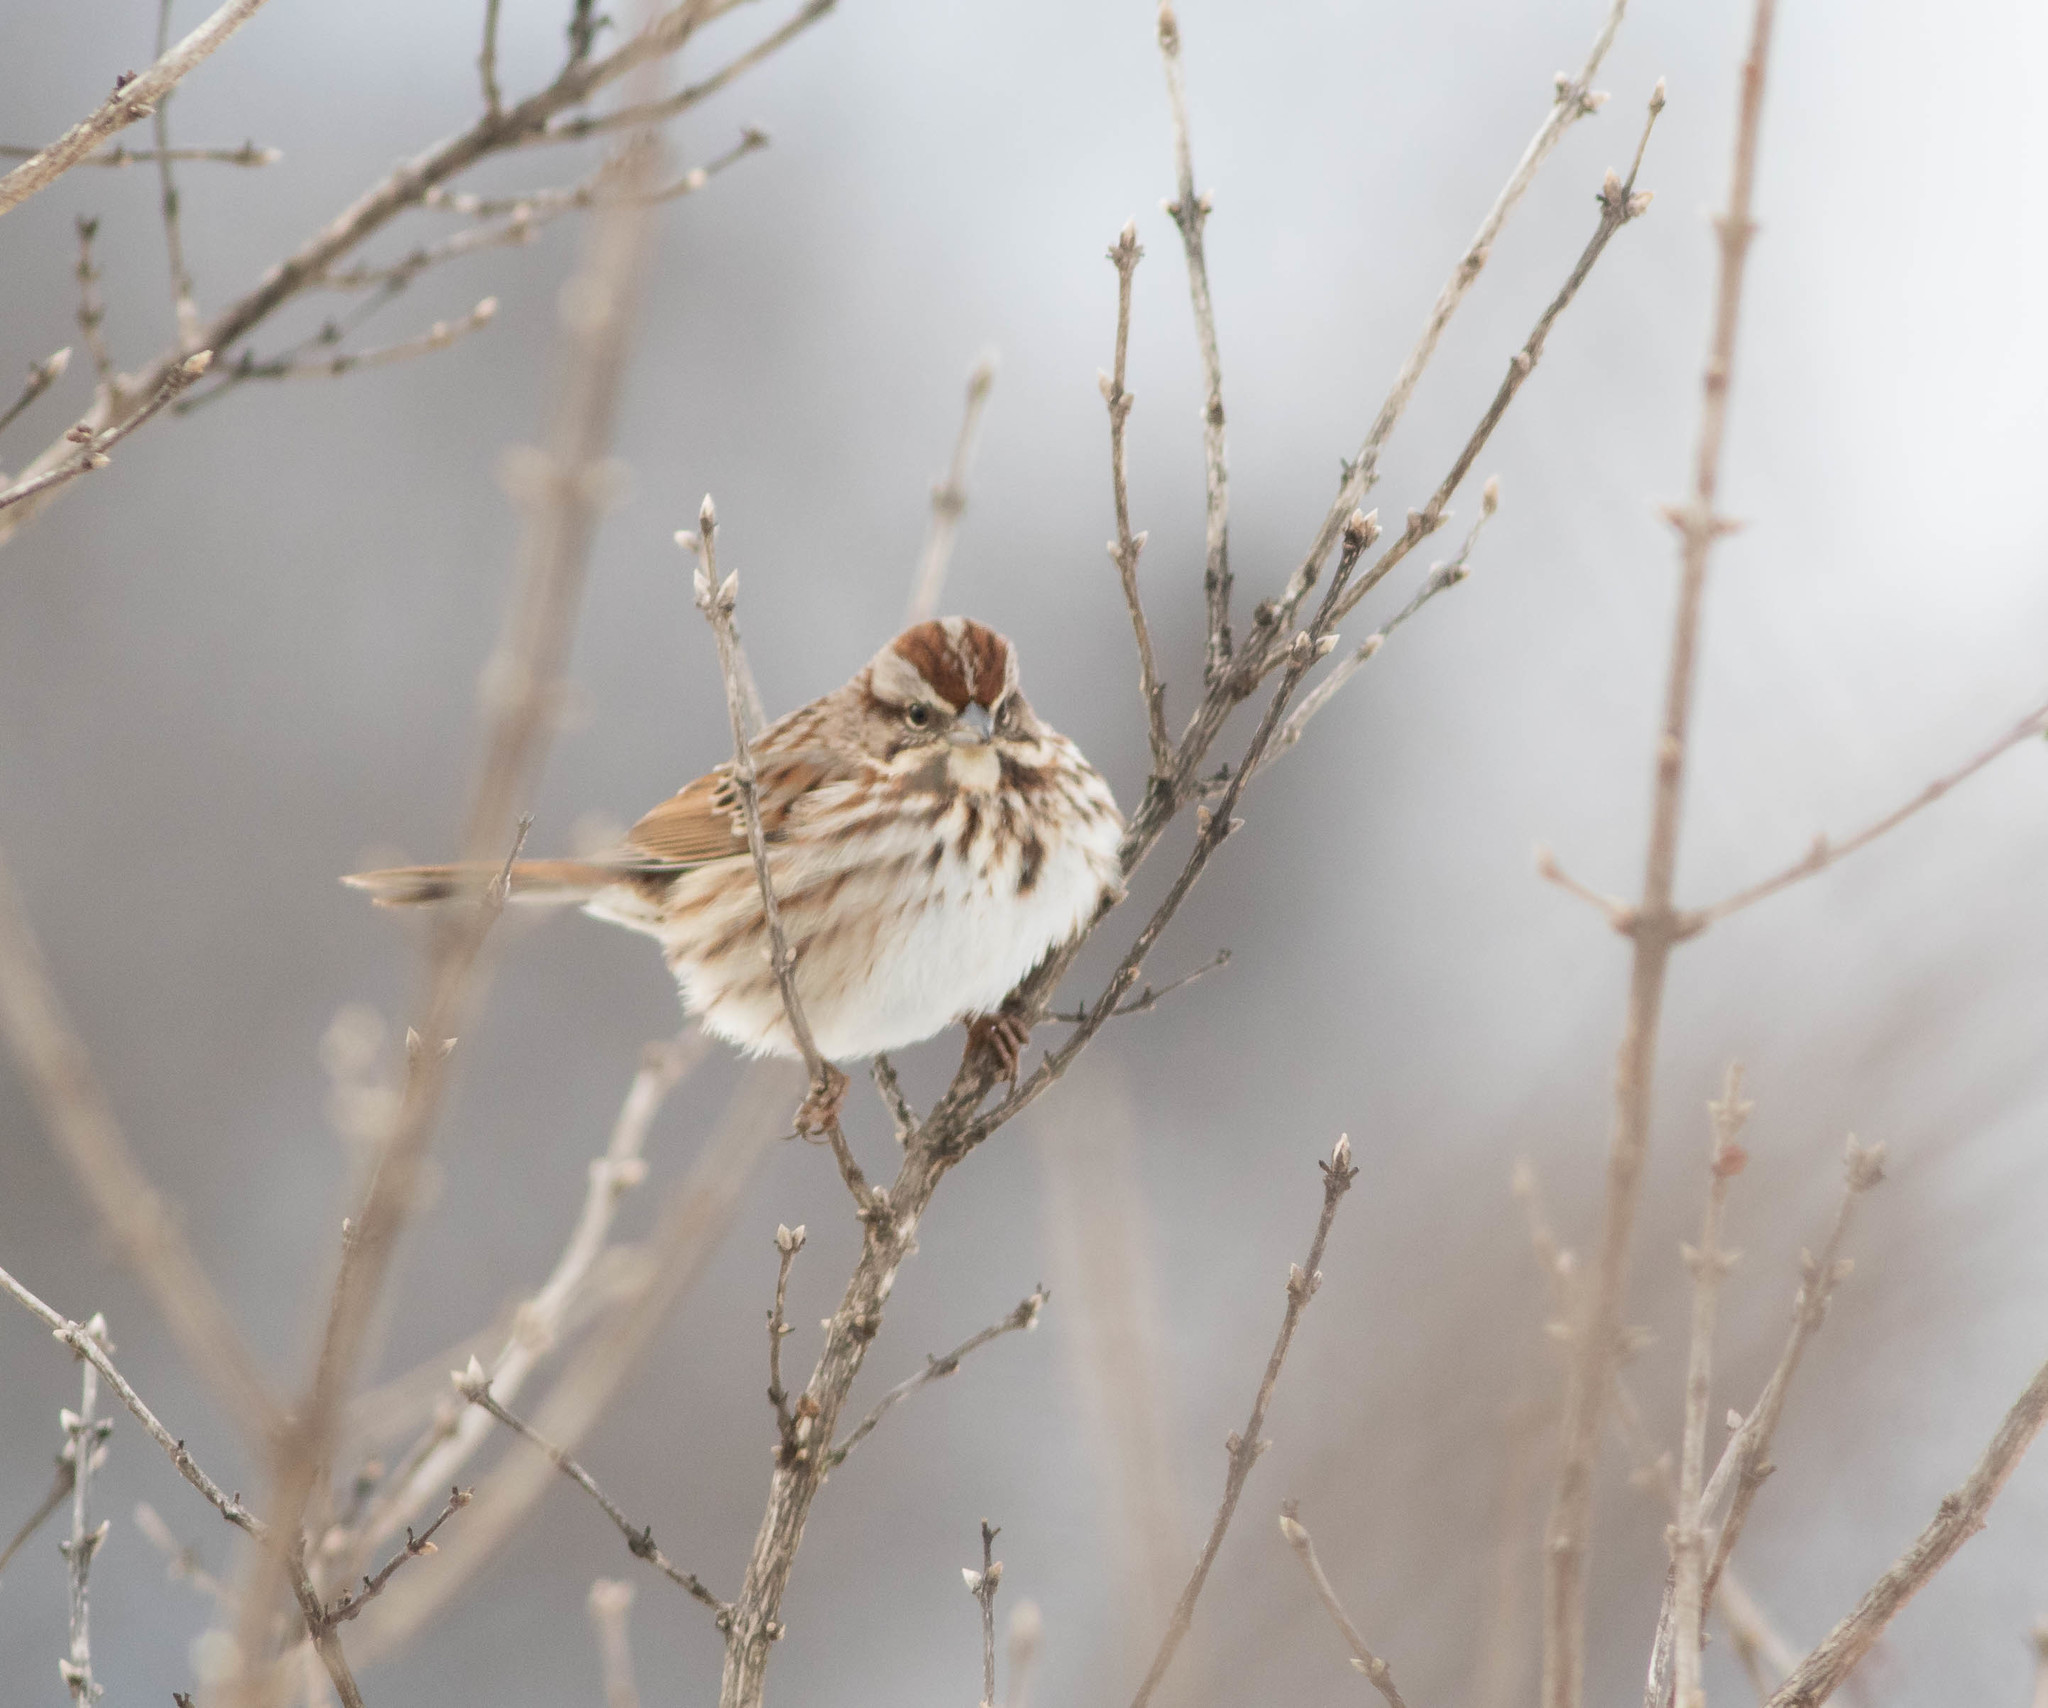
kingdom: Animalia
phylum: Chordata
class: Aves
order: Passeriformes
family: Passerellidae
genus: Melospiza
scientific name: Melospiza melodia
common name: Song sparrow
